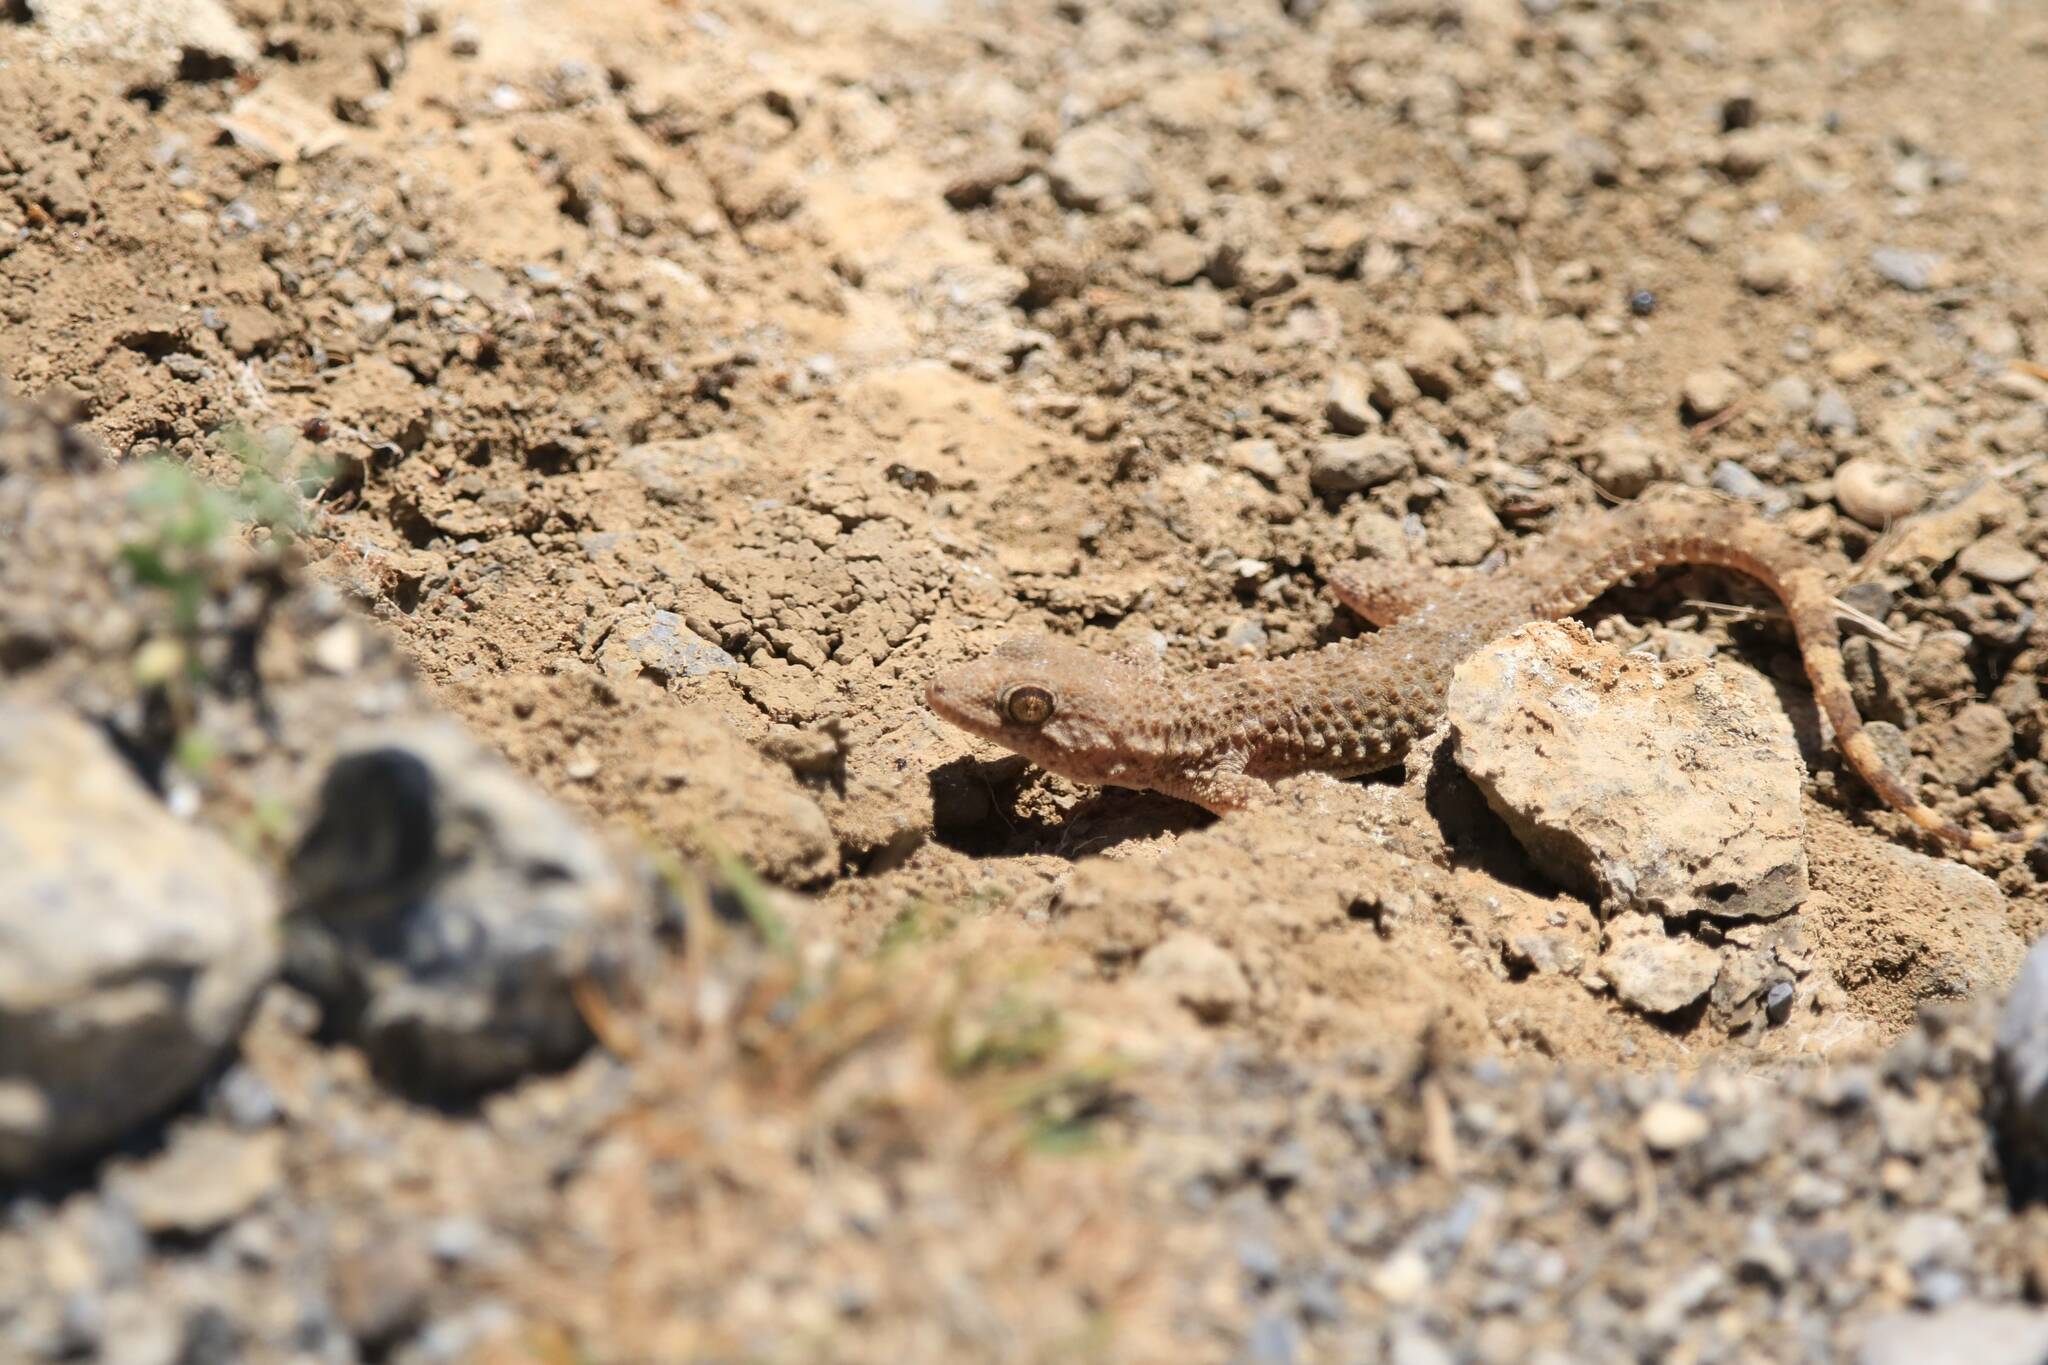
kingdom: Animalia
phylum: Chordata
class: Squamata
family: Phyllodactylidae
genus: Tarentola
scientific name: Tarentola mauritanica
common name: Moorish gecko
